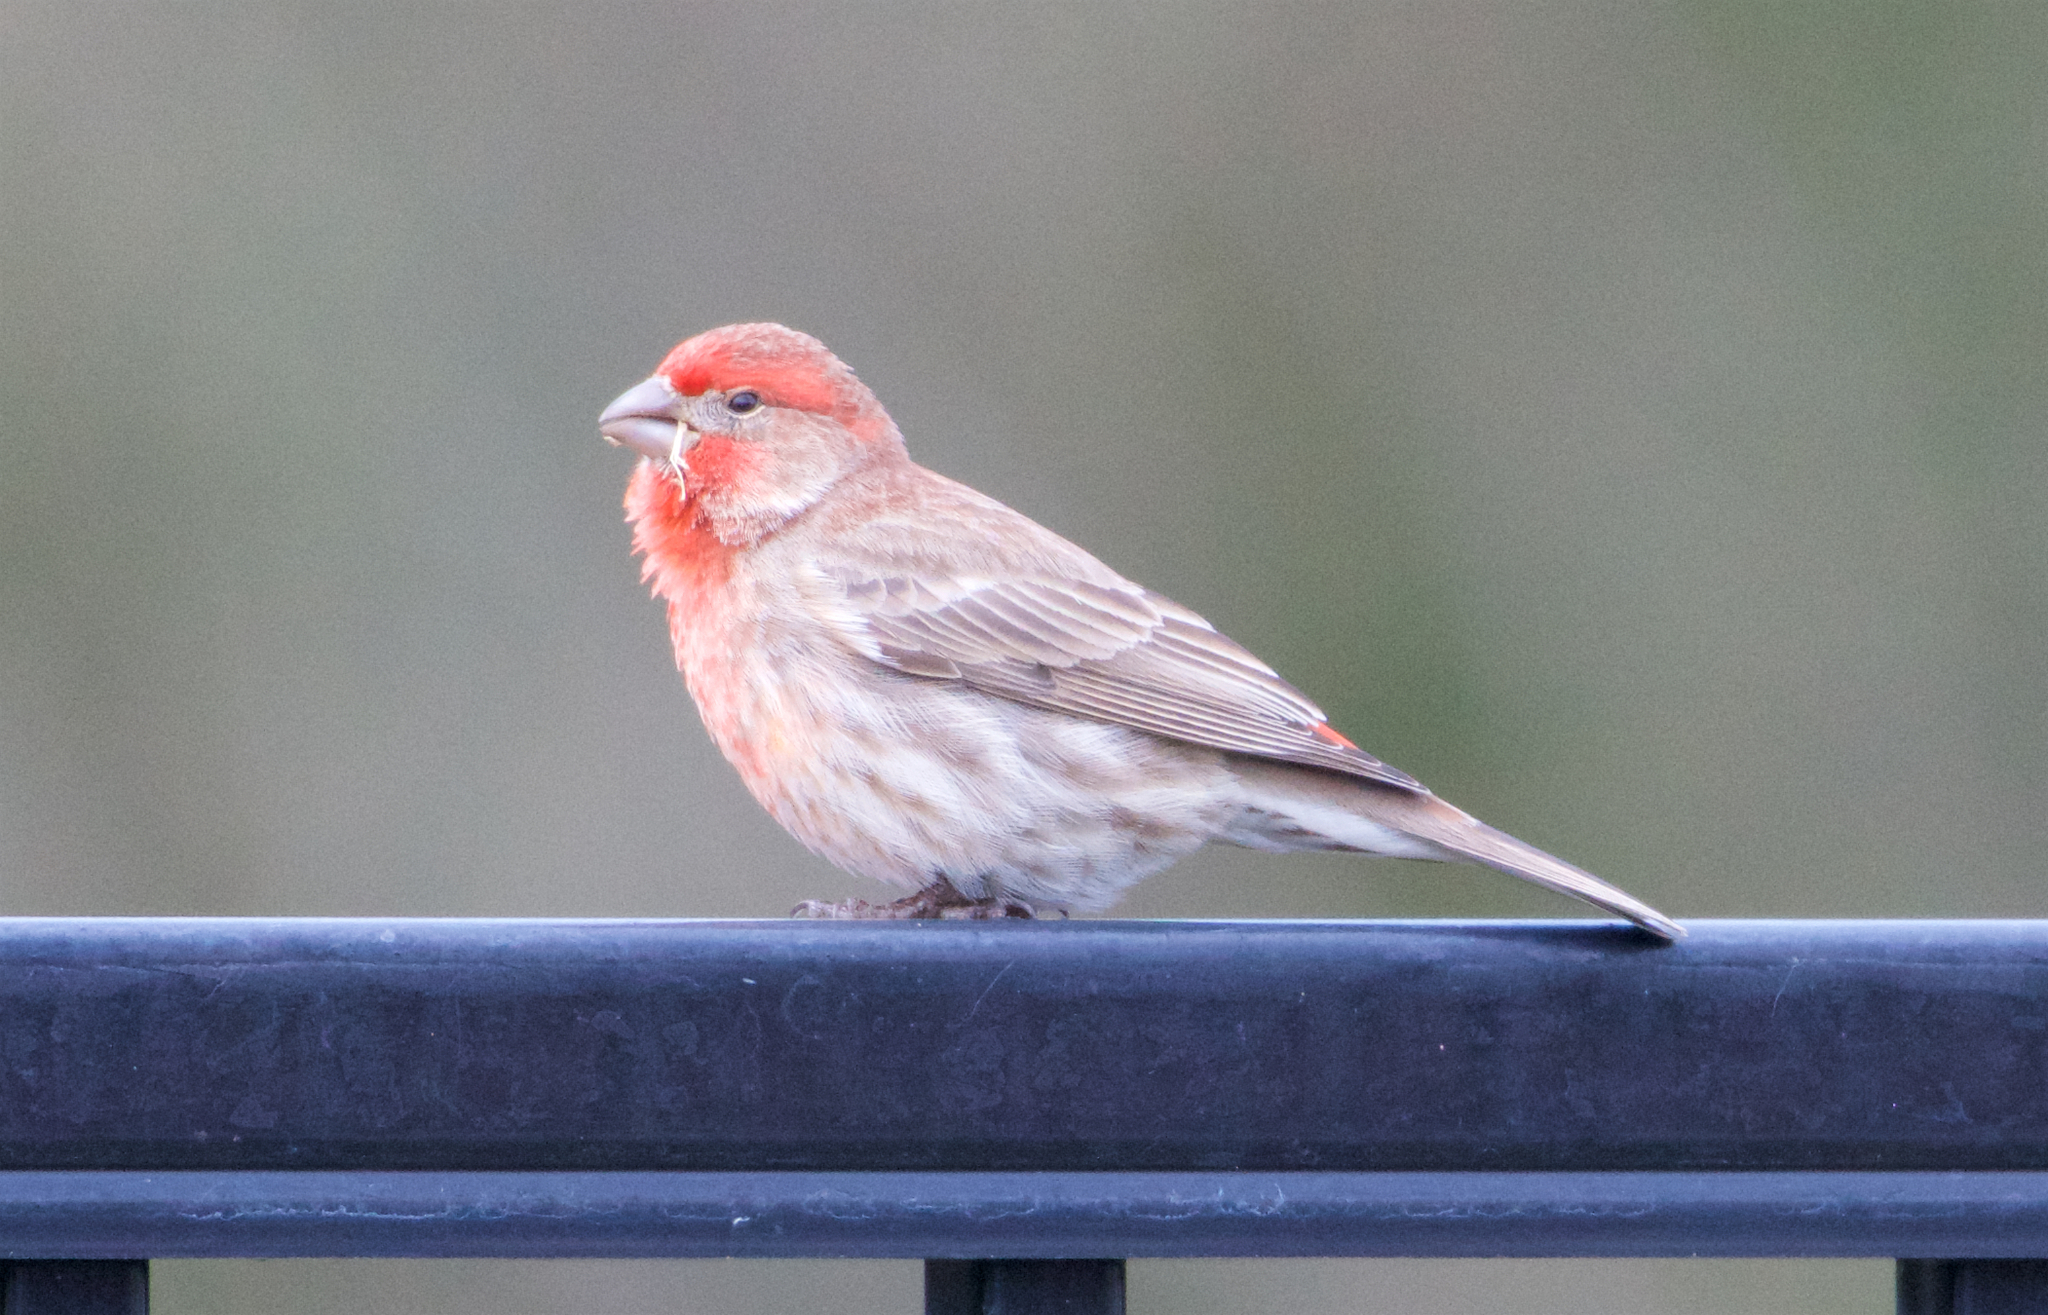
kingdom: Animalia
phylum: Chordata
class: Aves
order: Passeriformes
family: Fringillidae
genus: Haemorhous
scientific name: Haemorhous mexicanus
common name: House finch
